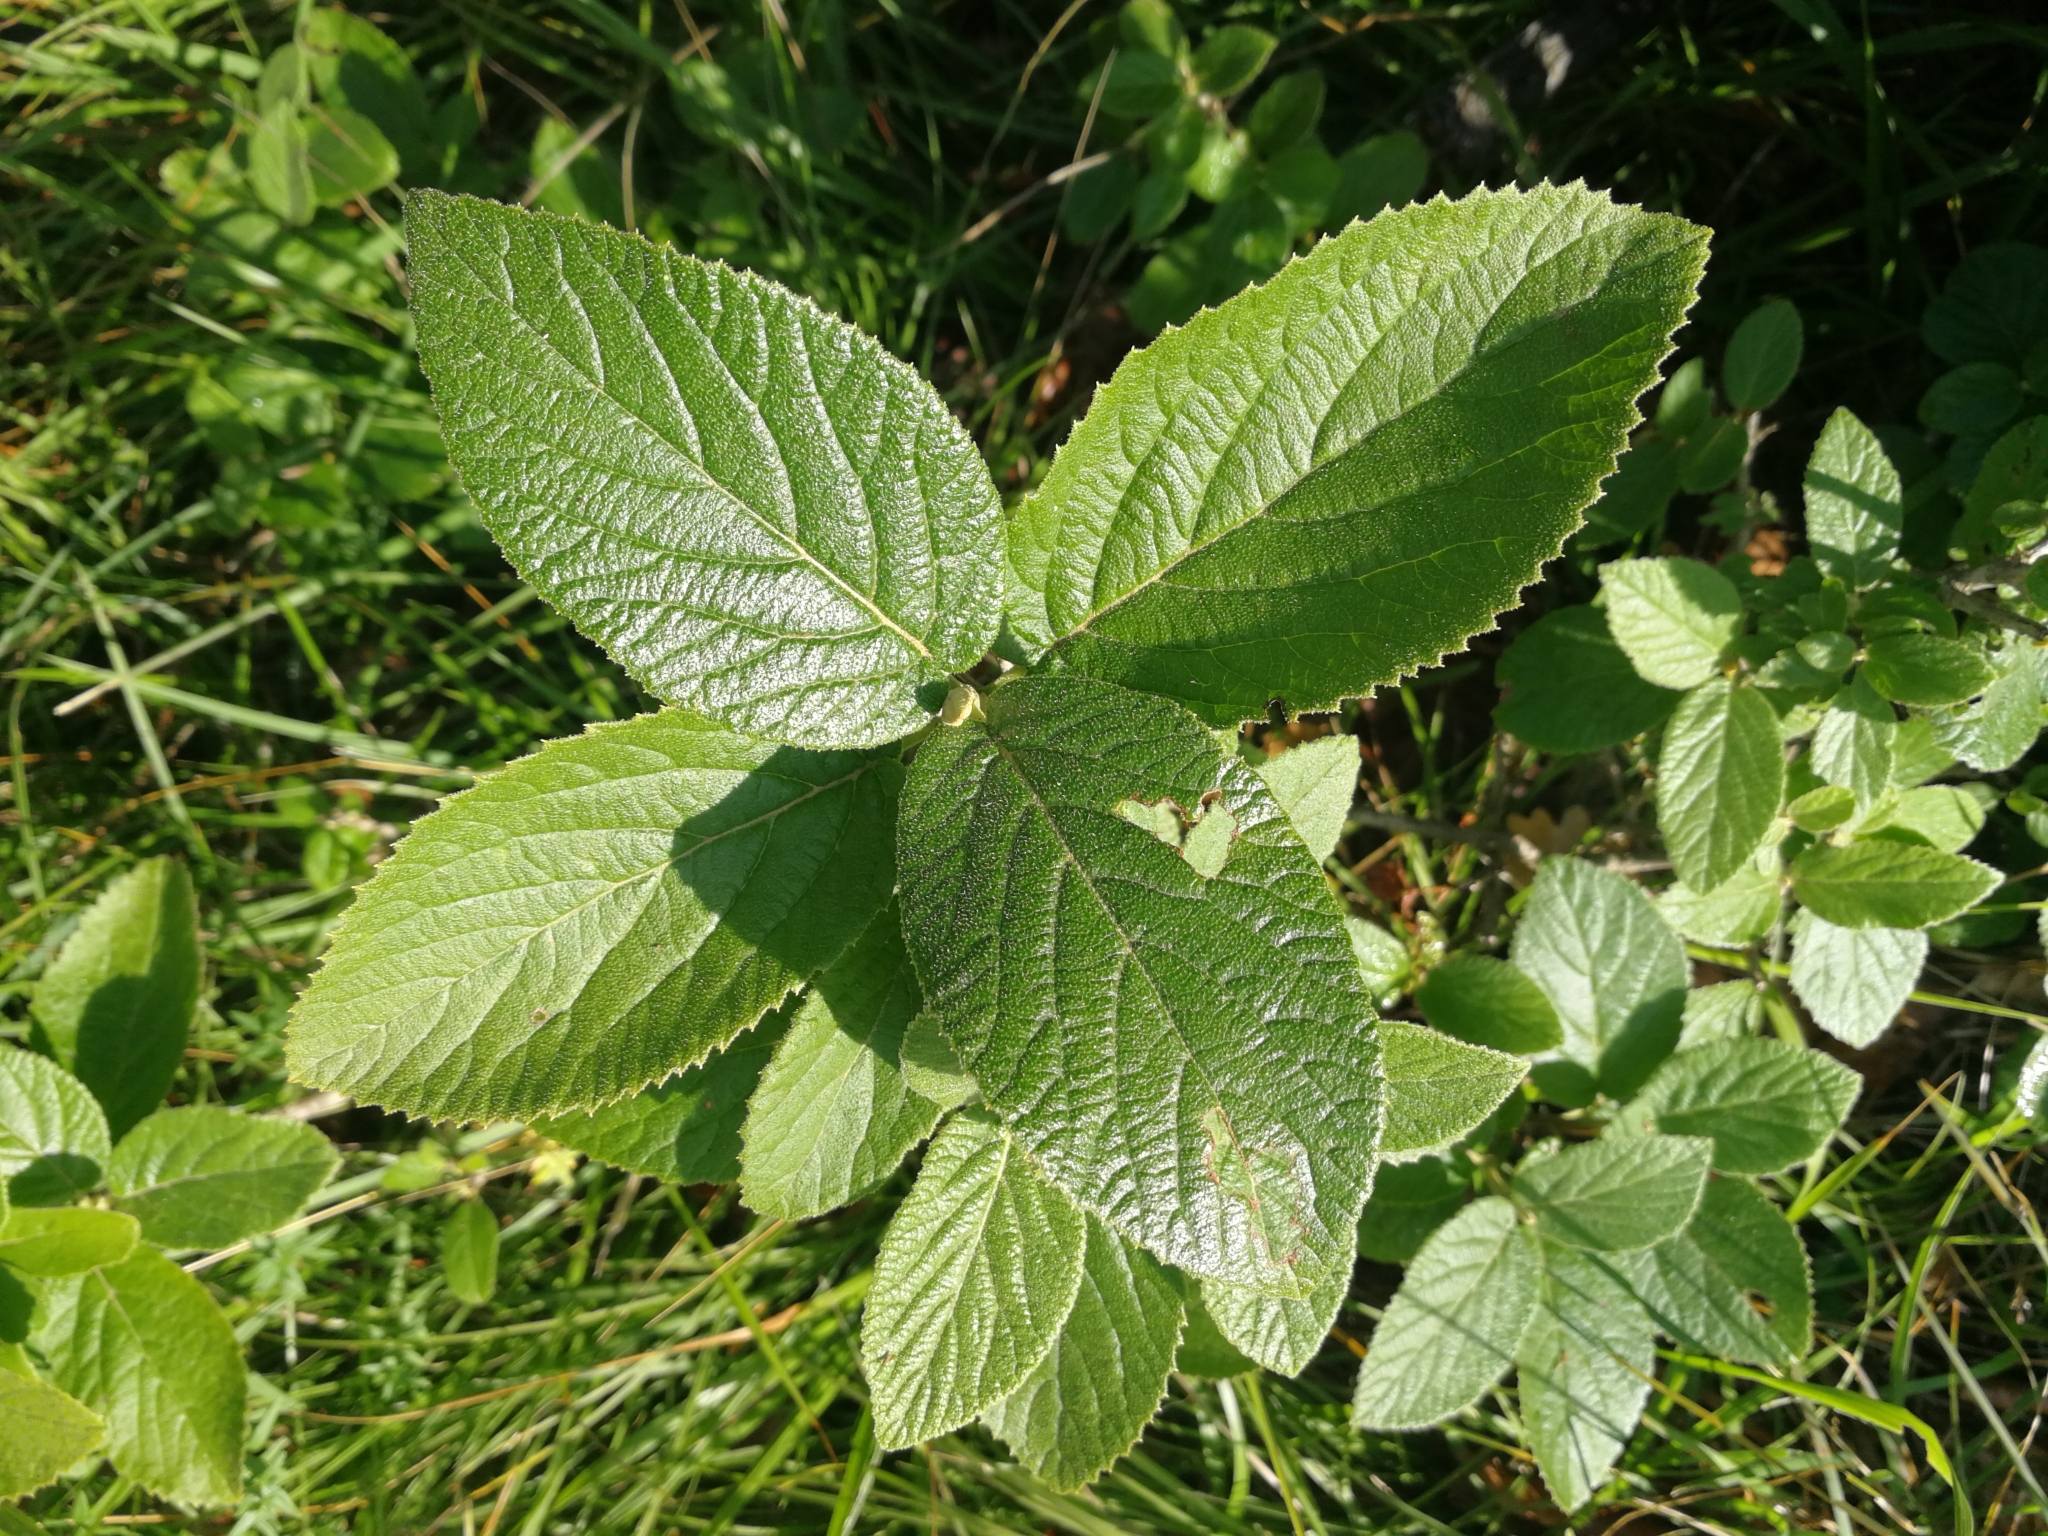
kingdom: Plantae
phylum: Tracheophyta
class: Magnoliopsida
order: Dipsacales
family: Viburnaceae
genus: Viburnum
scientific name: Viburnum lantana
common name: Wayfaring tree
